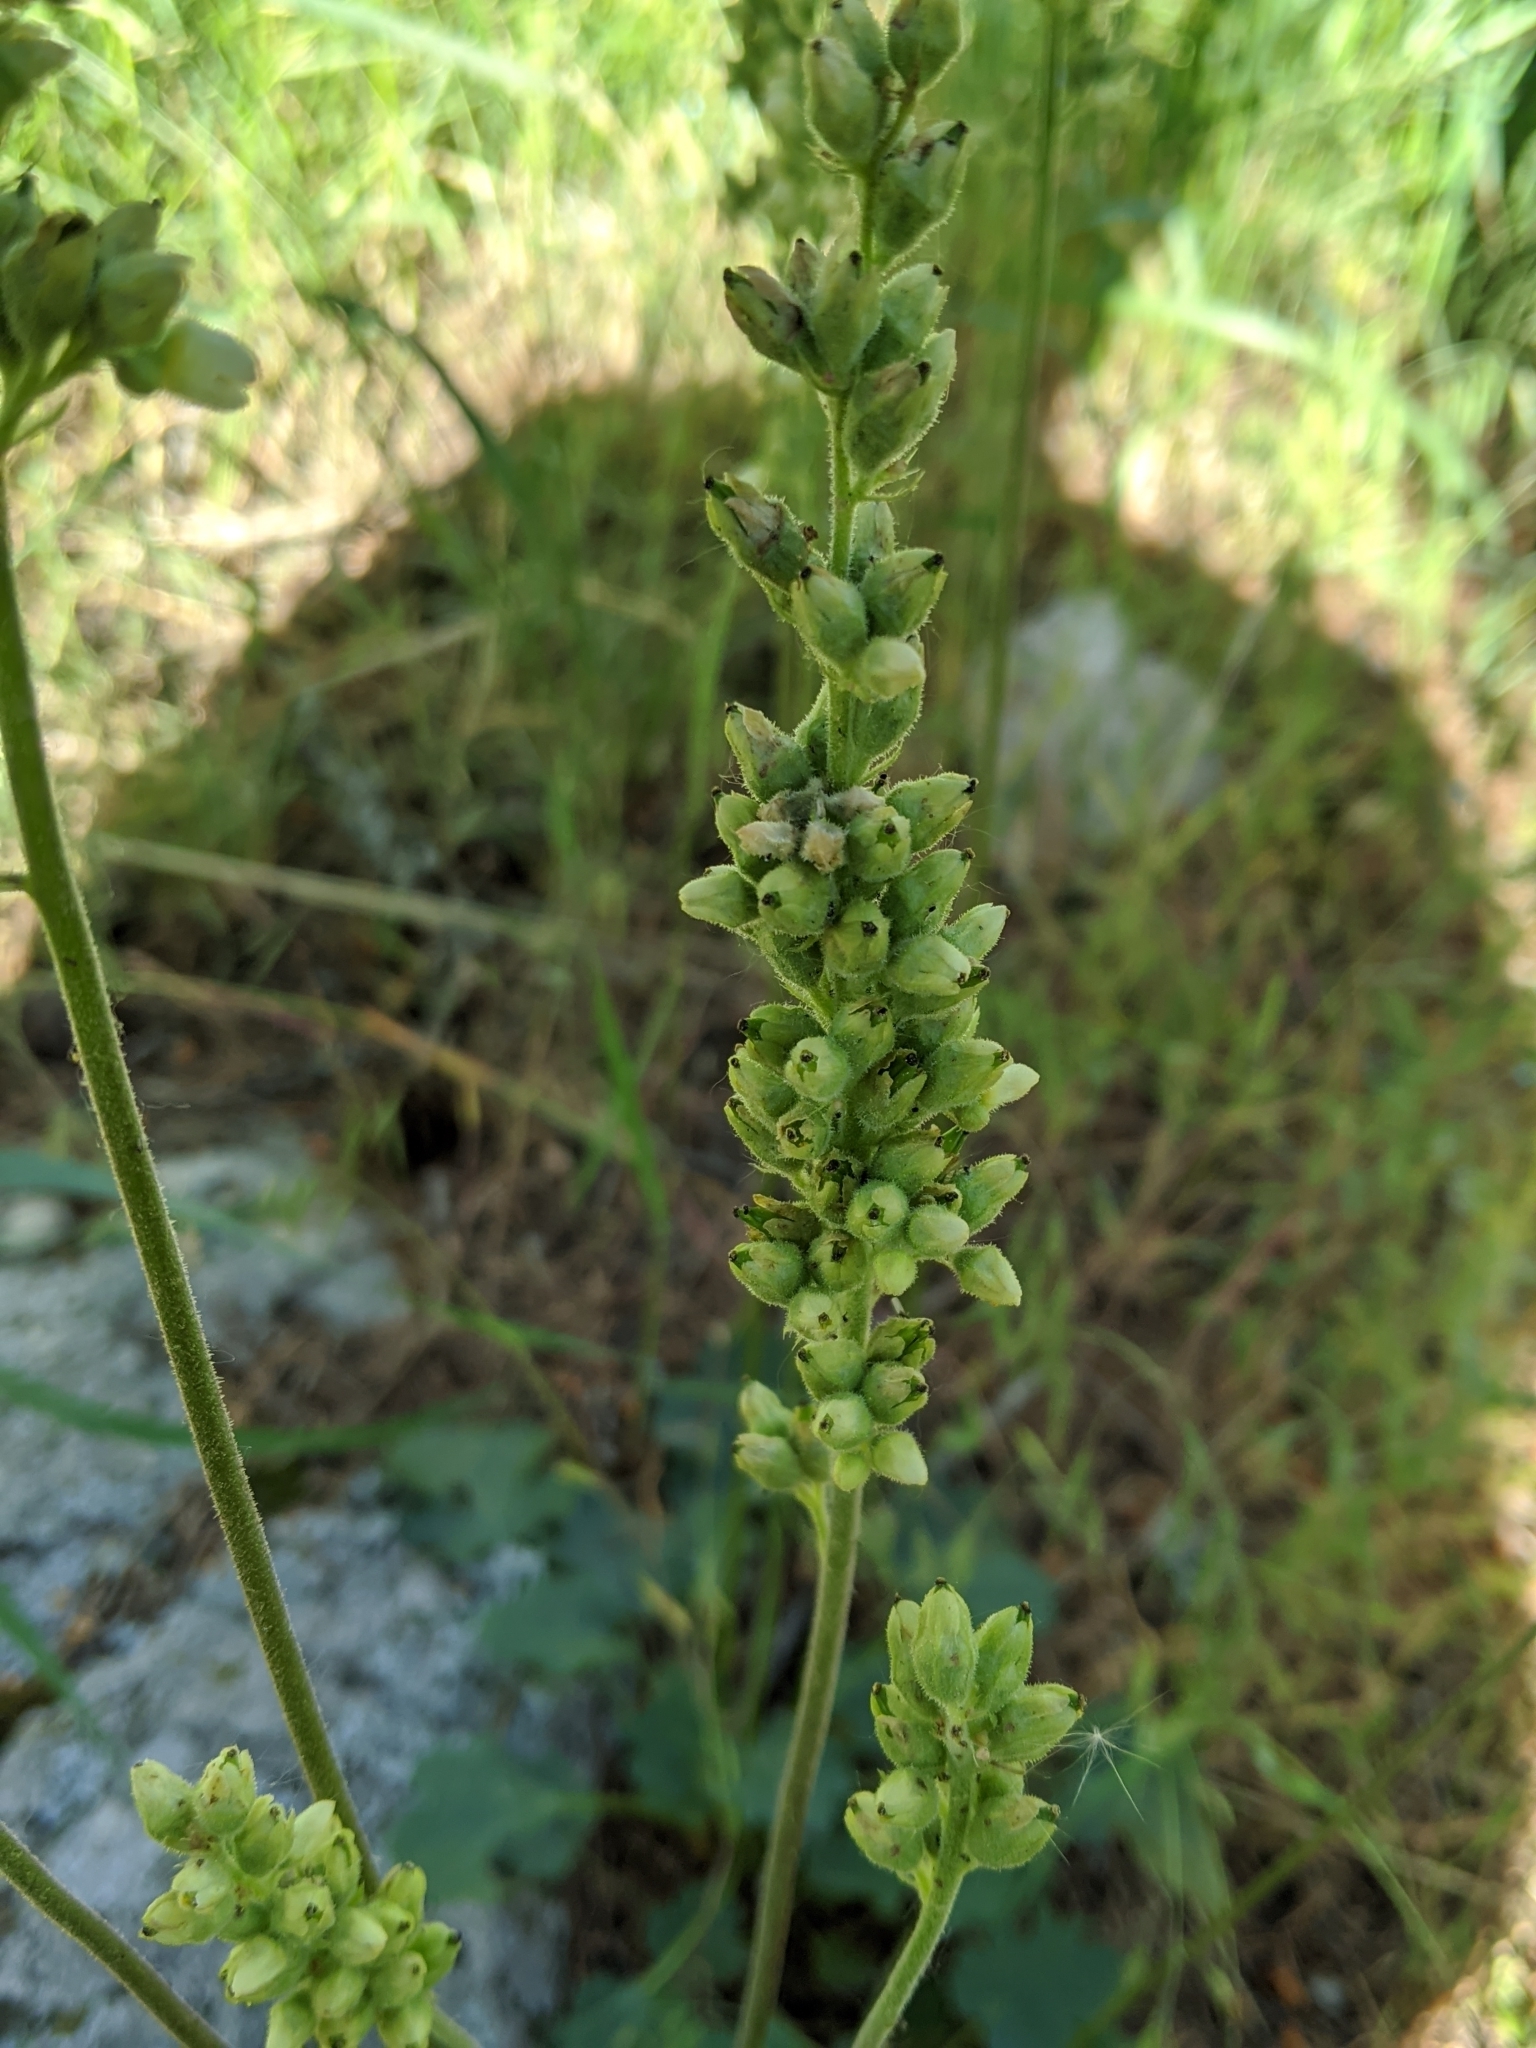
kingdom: Plantae
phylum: Tracheophyta
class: Magnoliopsida
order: Saxifragales
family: Saxifragaceae
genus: Heuchera
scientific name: Heuchera cylindrica
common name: Mat alumroot
